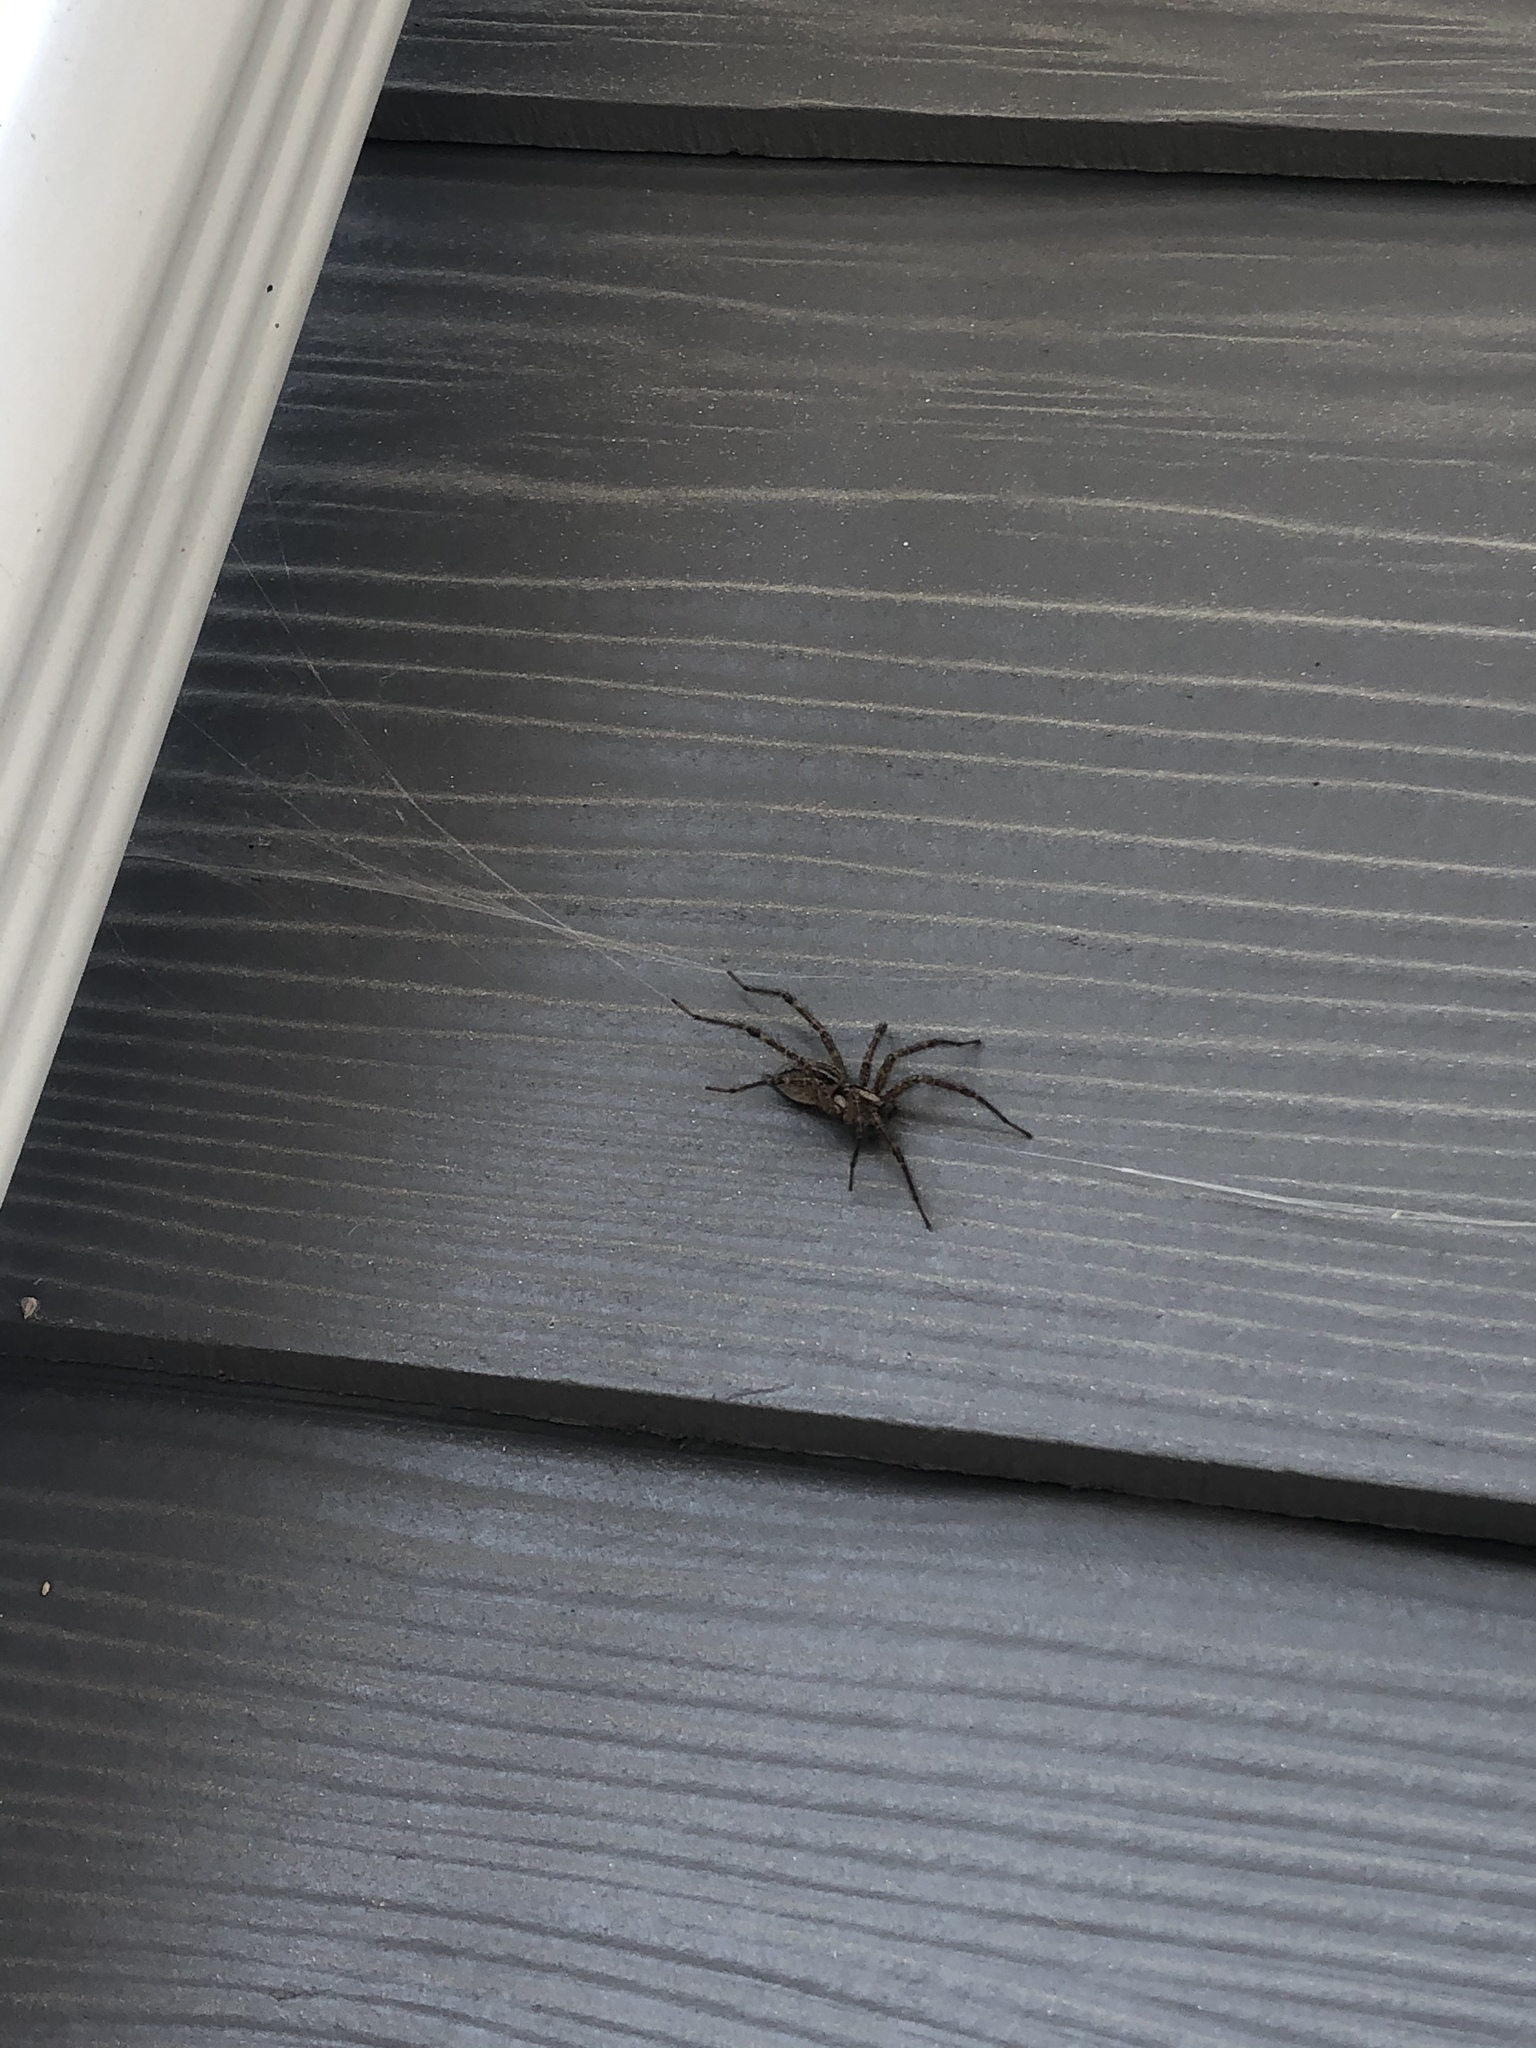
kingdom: Animalia
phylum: Arthropoda
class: Arachnida
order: Araneae
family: Agelenidae
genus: Agelenopsis
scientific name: Agelenopsis
